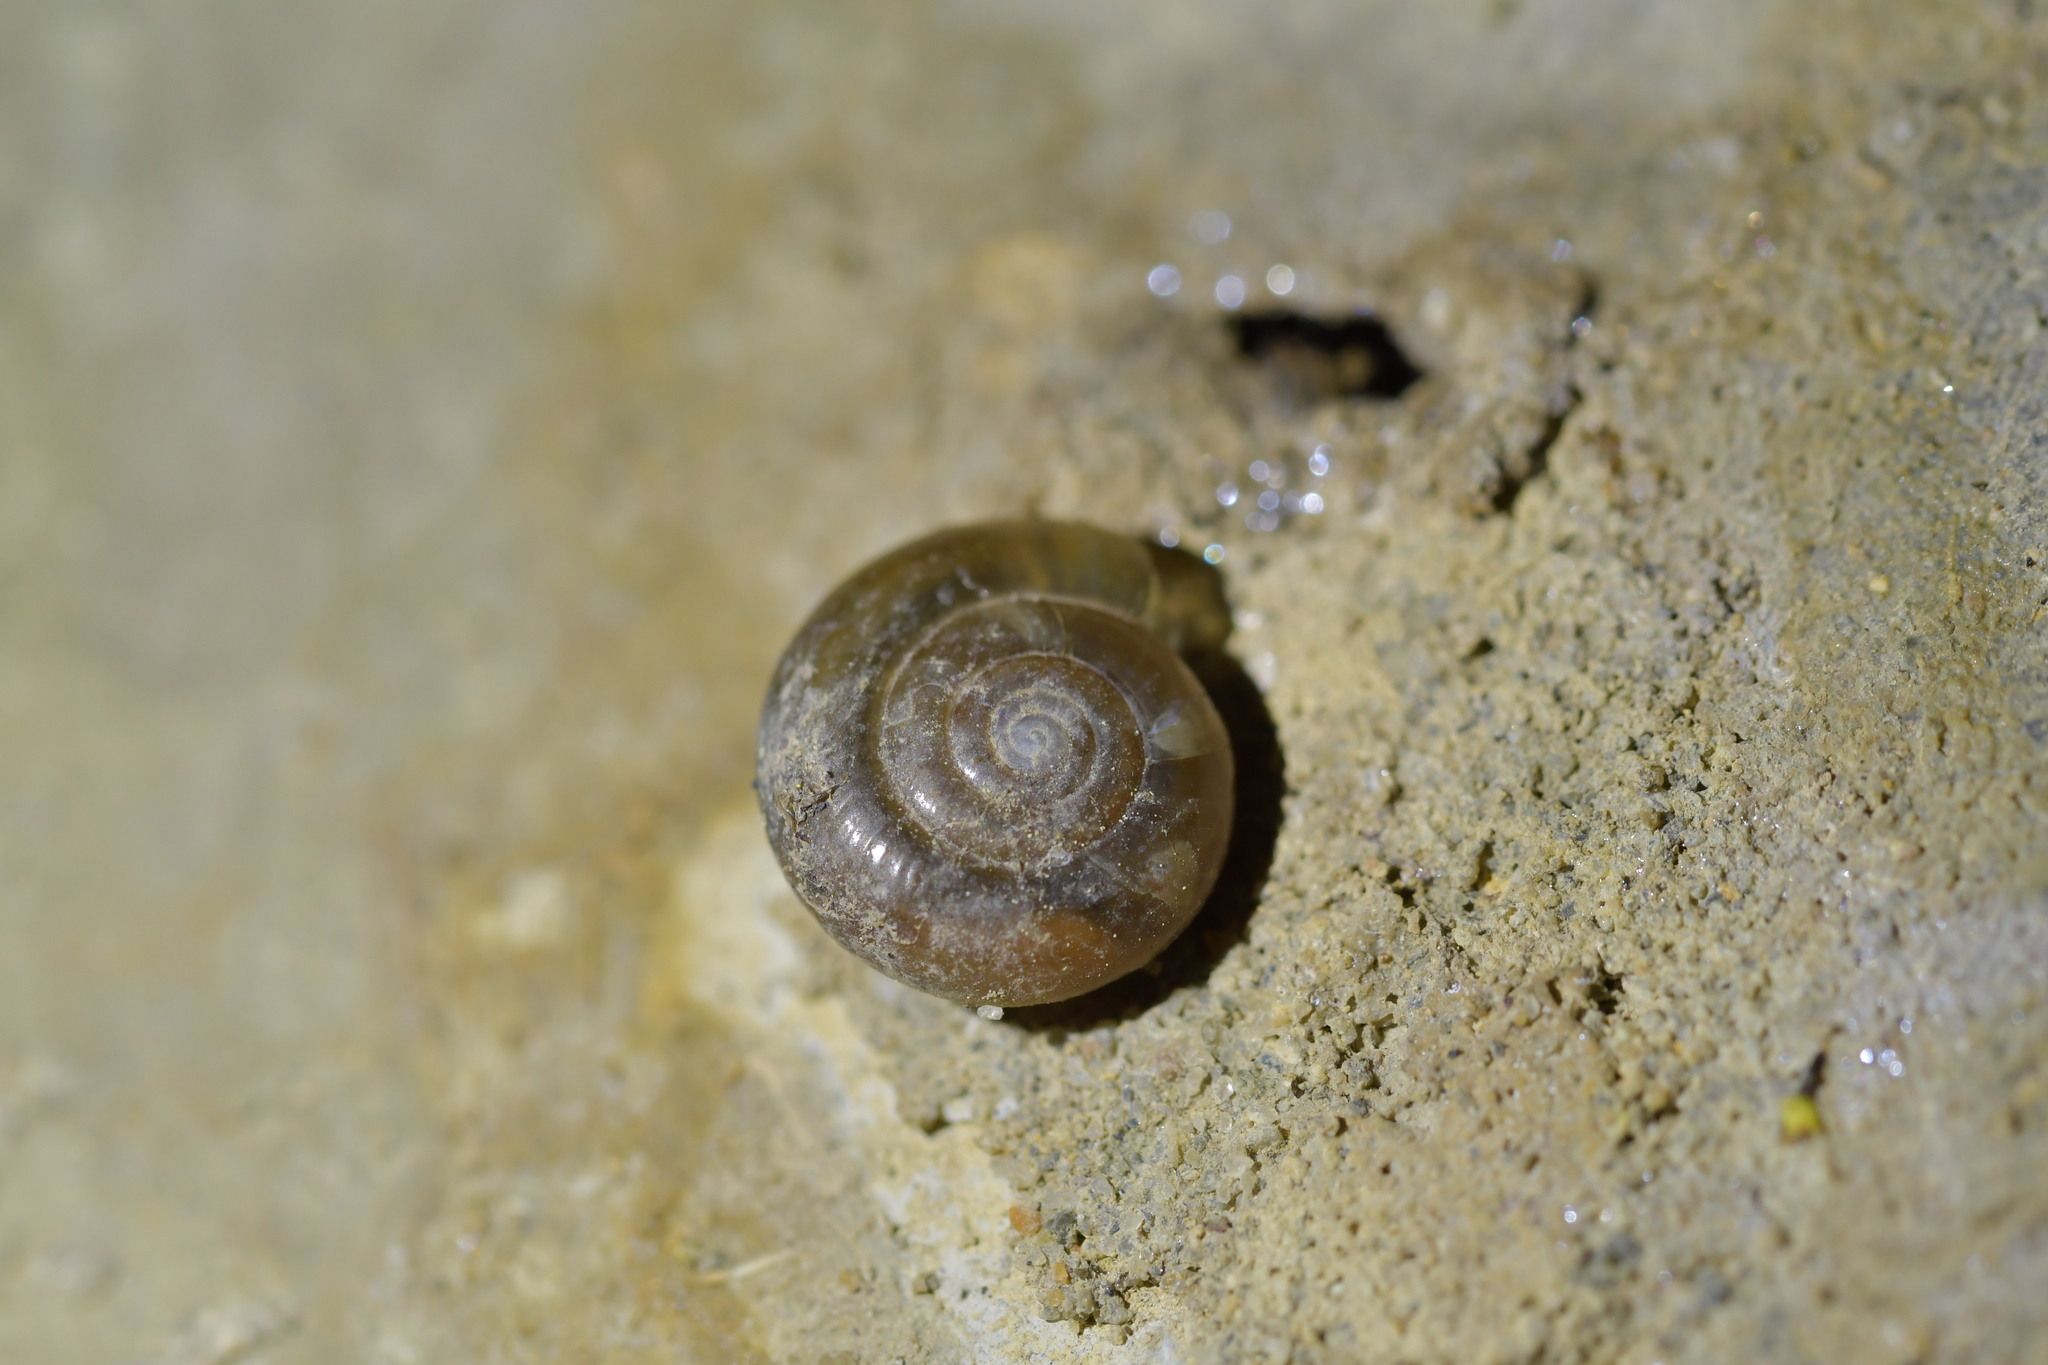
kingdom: Animalia
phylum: Mollusca
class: Gastropoda
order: Stylommatophora
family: Oxychilidae
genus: Oxychilus
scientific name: Oxychilus draparnaudi
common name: Draparnaud's glass snail
